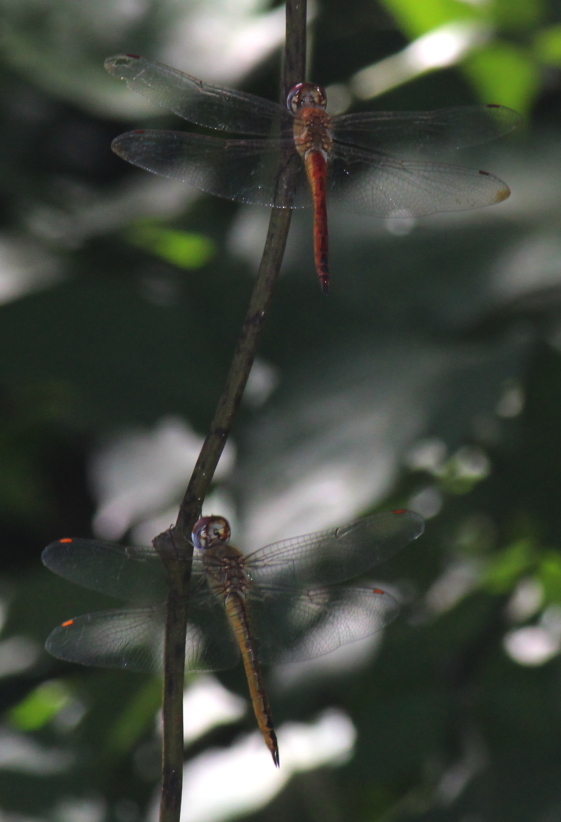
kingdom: Animalia
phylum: Arthropoda
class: Insecta
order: Odonata
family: Libellulidae
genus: Pantala
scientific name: Pantala flavescens
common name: Wandering glider
